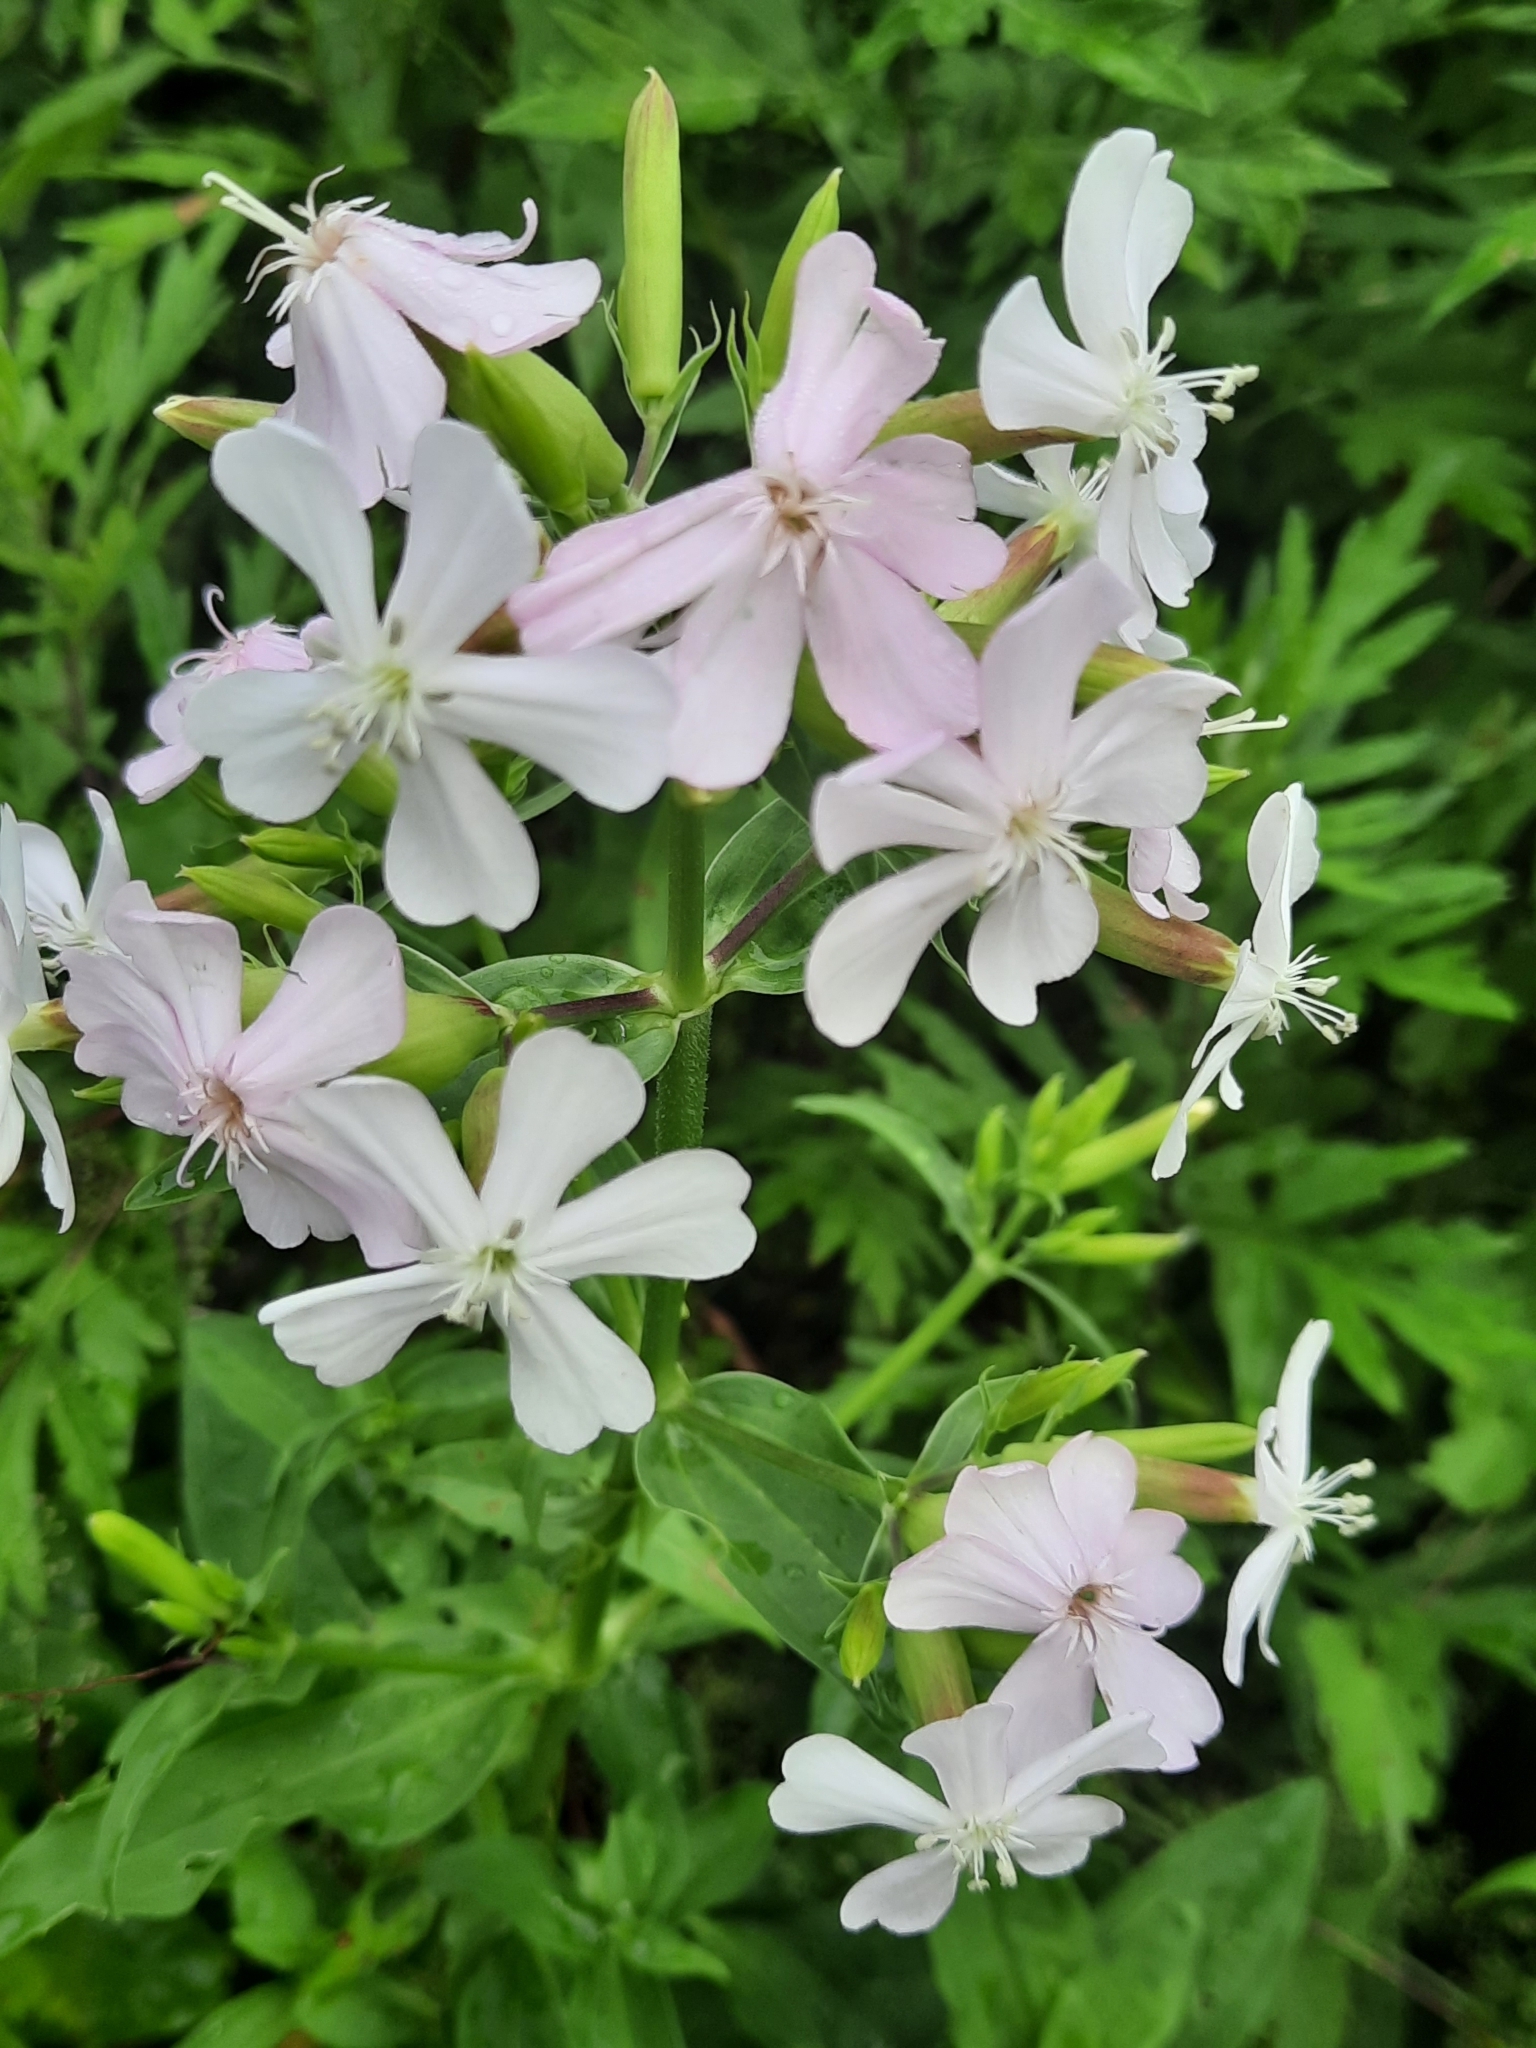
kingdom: Plantae
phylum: Tracheophyta
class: Magnoliopsida
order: Caryophyllales
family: Caryophyllaceae
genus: Saponaria
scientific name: Saponaria officinalis
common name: Soapwort
